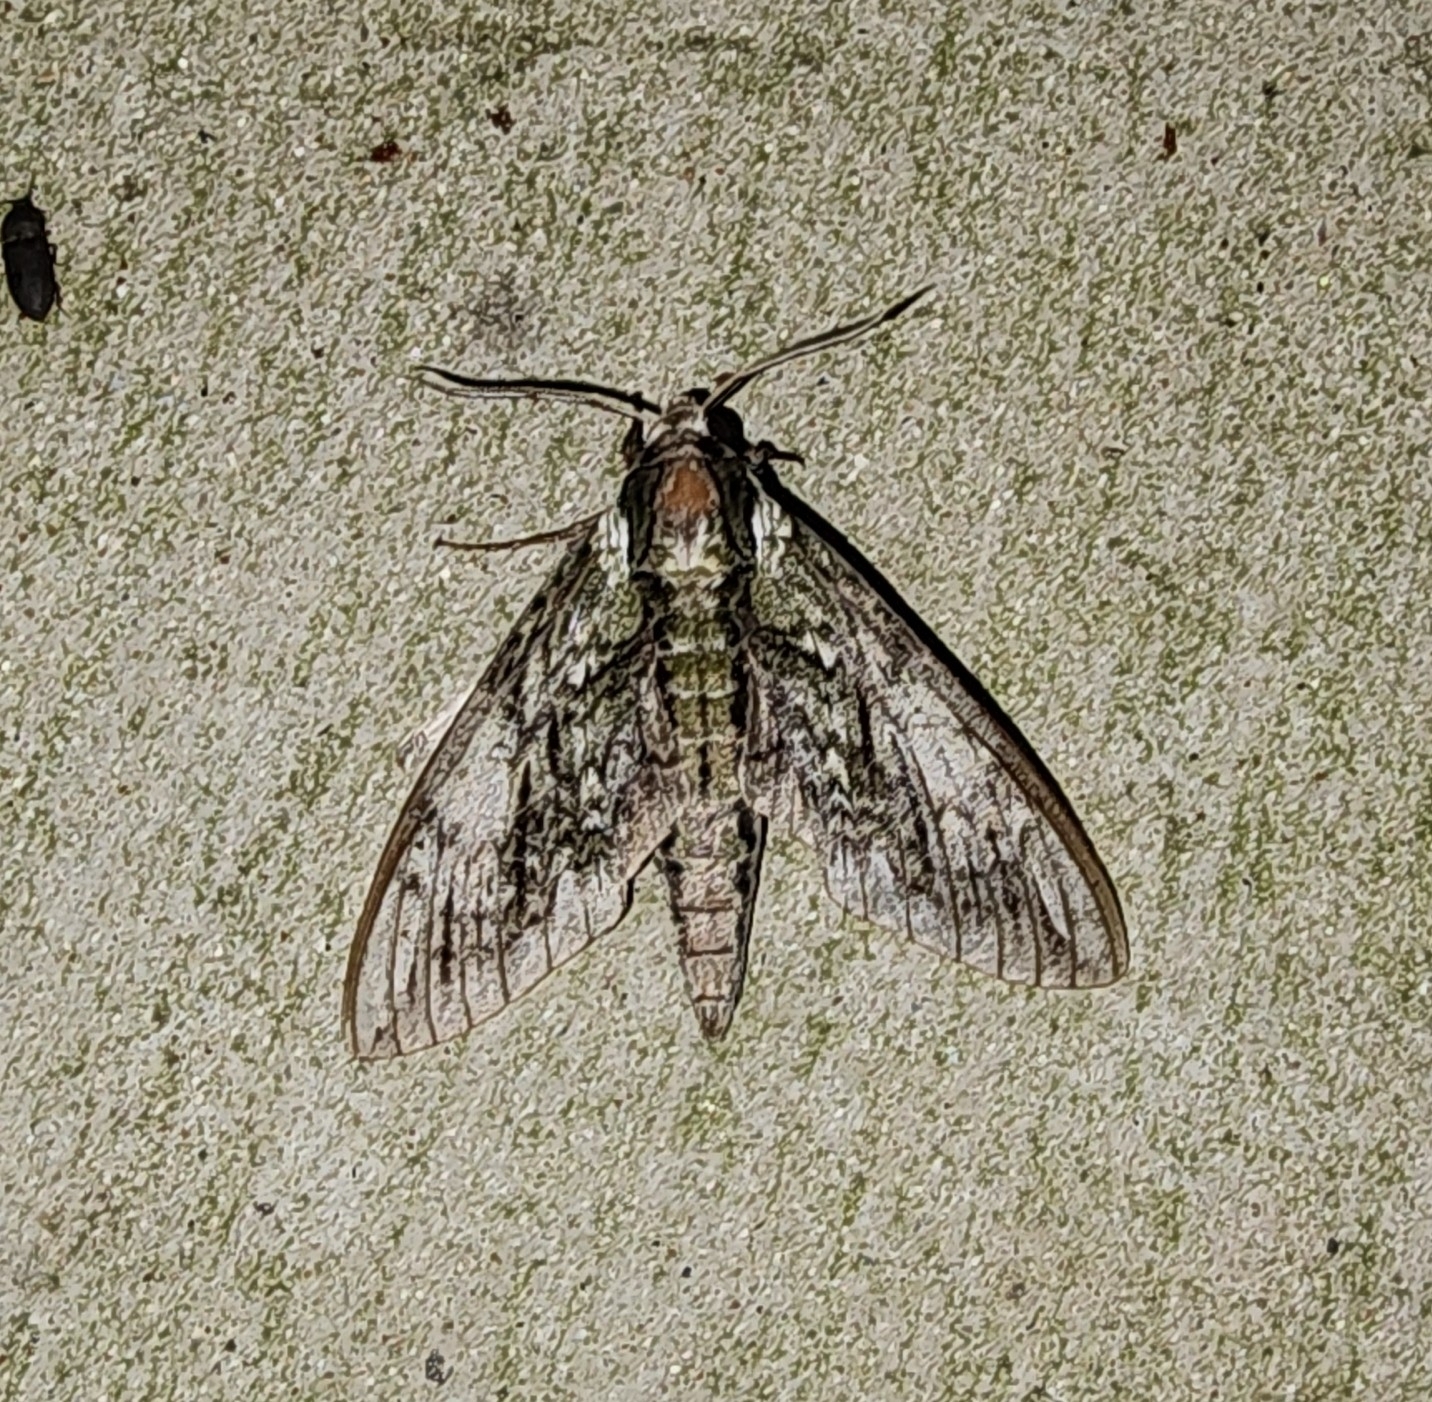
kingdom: Animalia
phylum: Arthropoda
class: Insecta
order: Lepidoptera
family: Sphingidae
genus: Ceratomia
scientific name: Ceratomia hageni
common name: Hagen's sphinx
